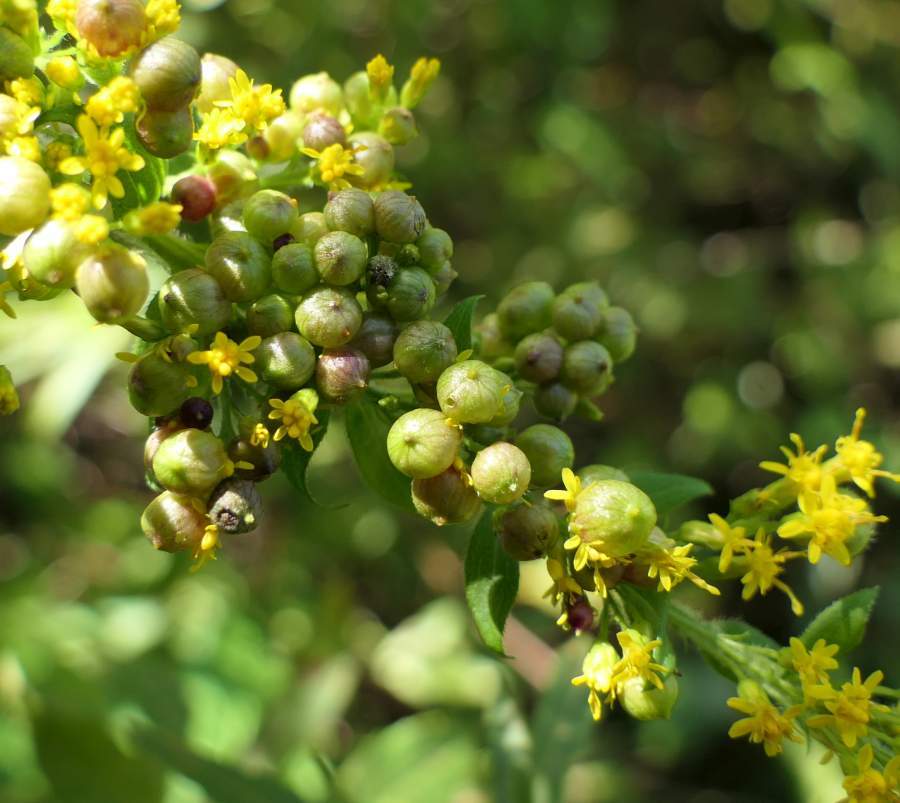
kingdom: Animalia
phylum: Arthropoda
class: Insecta
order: Diptera
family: Cecidomyiidae
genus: Schizomyia
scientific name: Schizomyia racemicola
